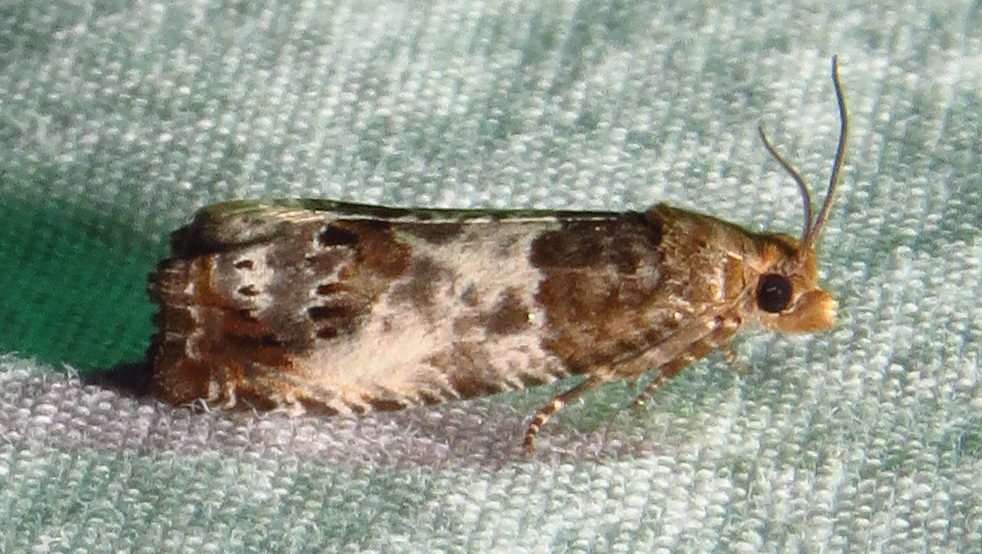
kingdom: Animalia
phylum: Arthropoda
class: Insecta
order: Lepidoptera
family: Tortricidae
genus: Notocelia
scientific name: Notocelia rosaecolana
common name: Common rose bell
